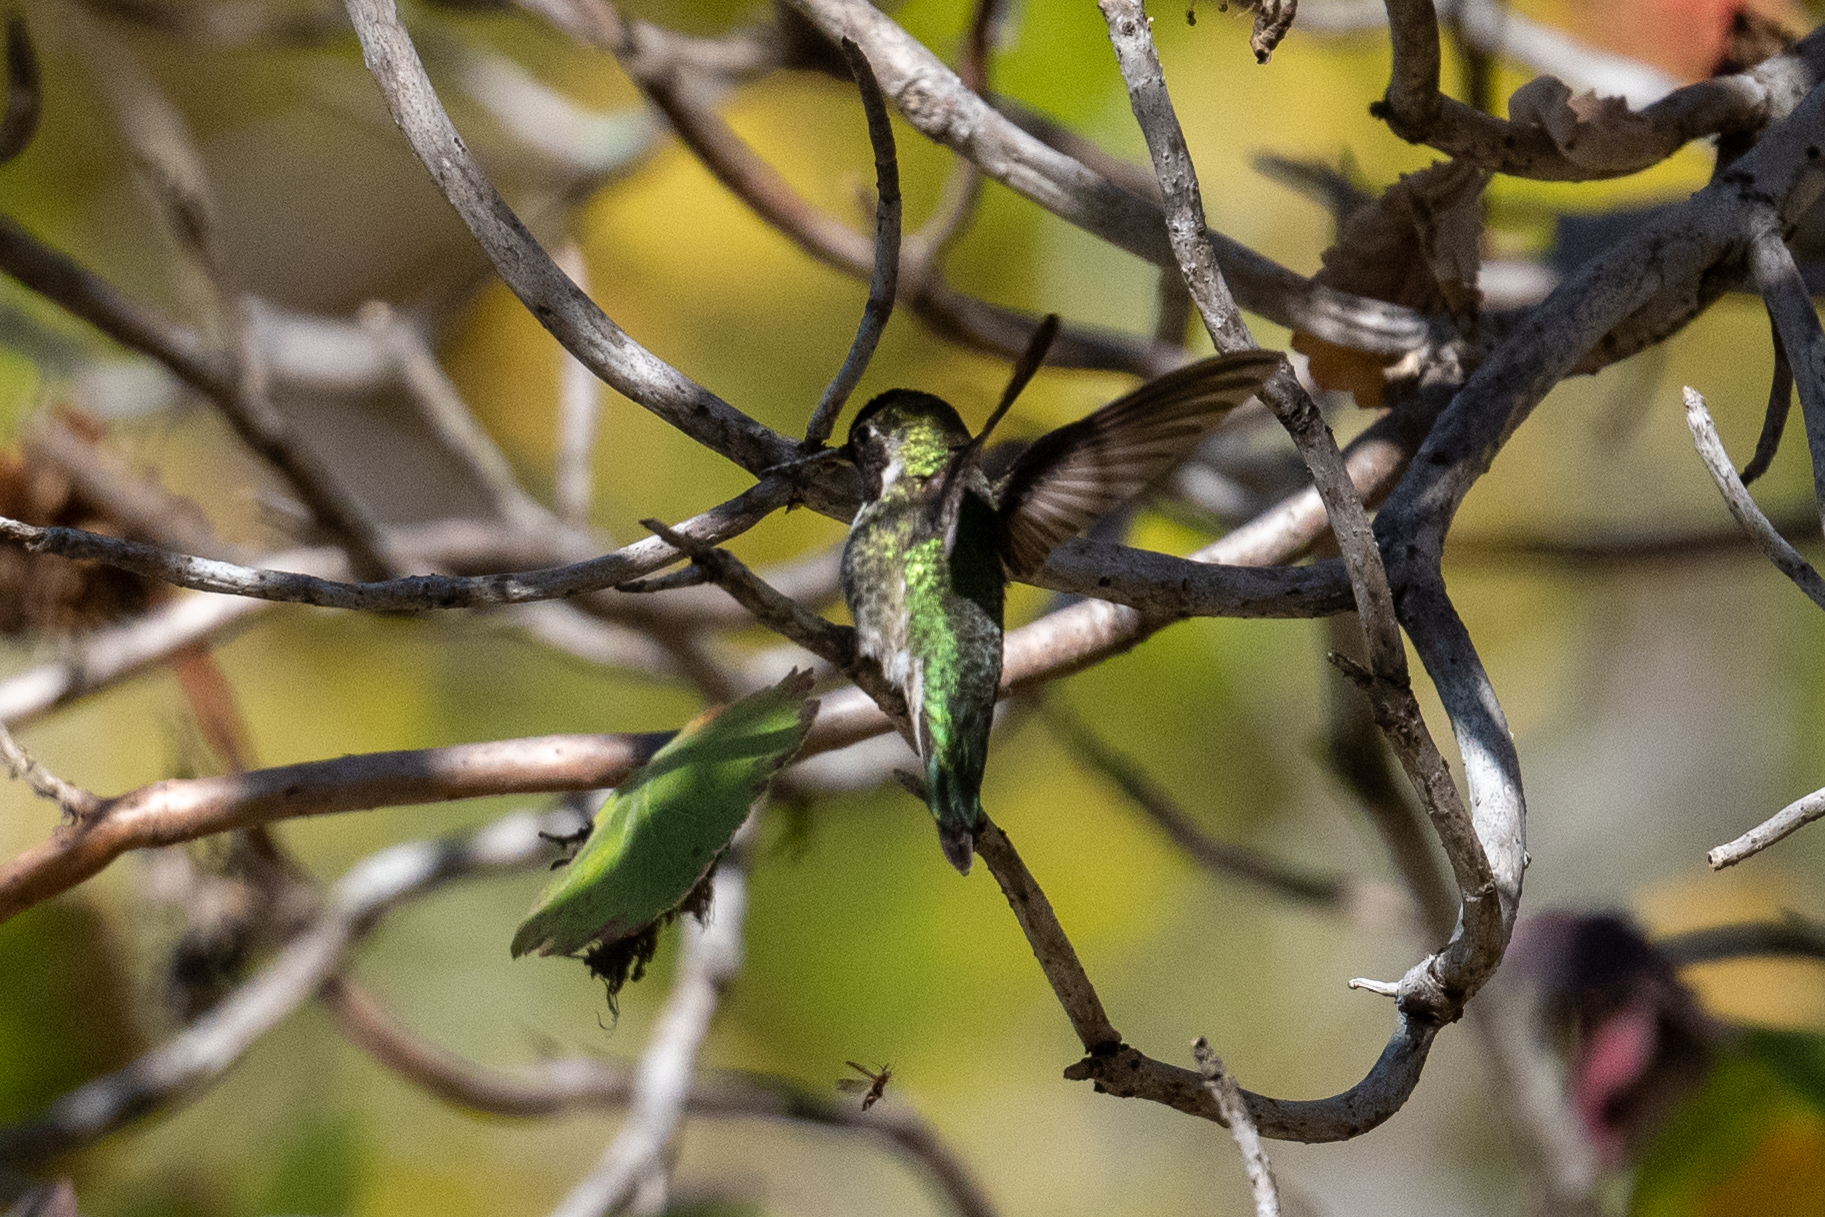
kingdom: Animalia
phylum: Chordata
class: Aves
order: Apodiformes
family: Trochilidae
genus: Calypte
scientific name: Calypte anna
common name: Anna's hummingbird
